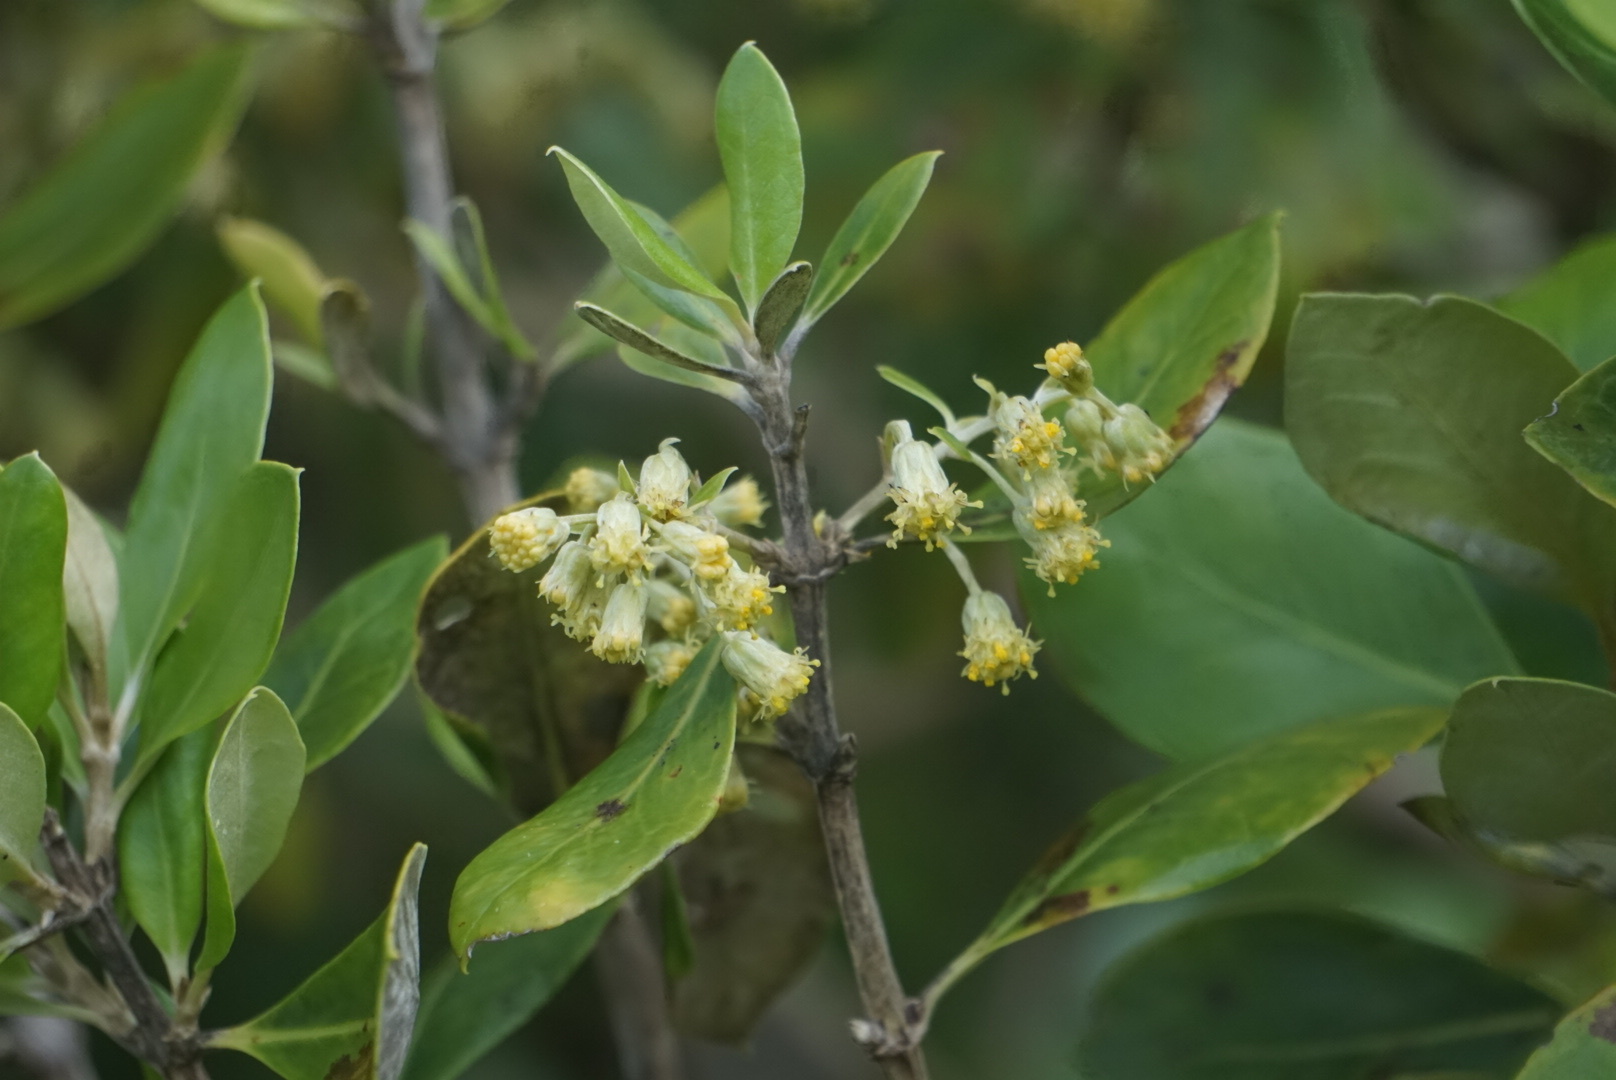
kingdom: Plantae
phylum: Tracheophyta
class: Magnoliopsida
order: Asterales
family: Asteraceae
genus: Olearia
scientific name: Olearia telmatica
